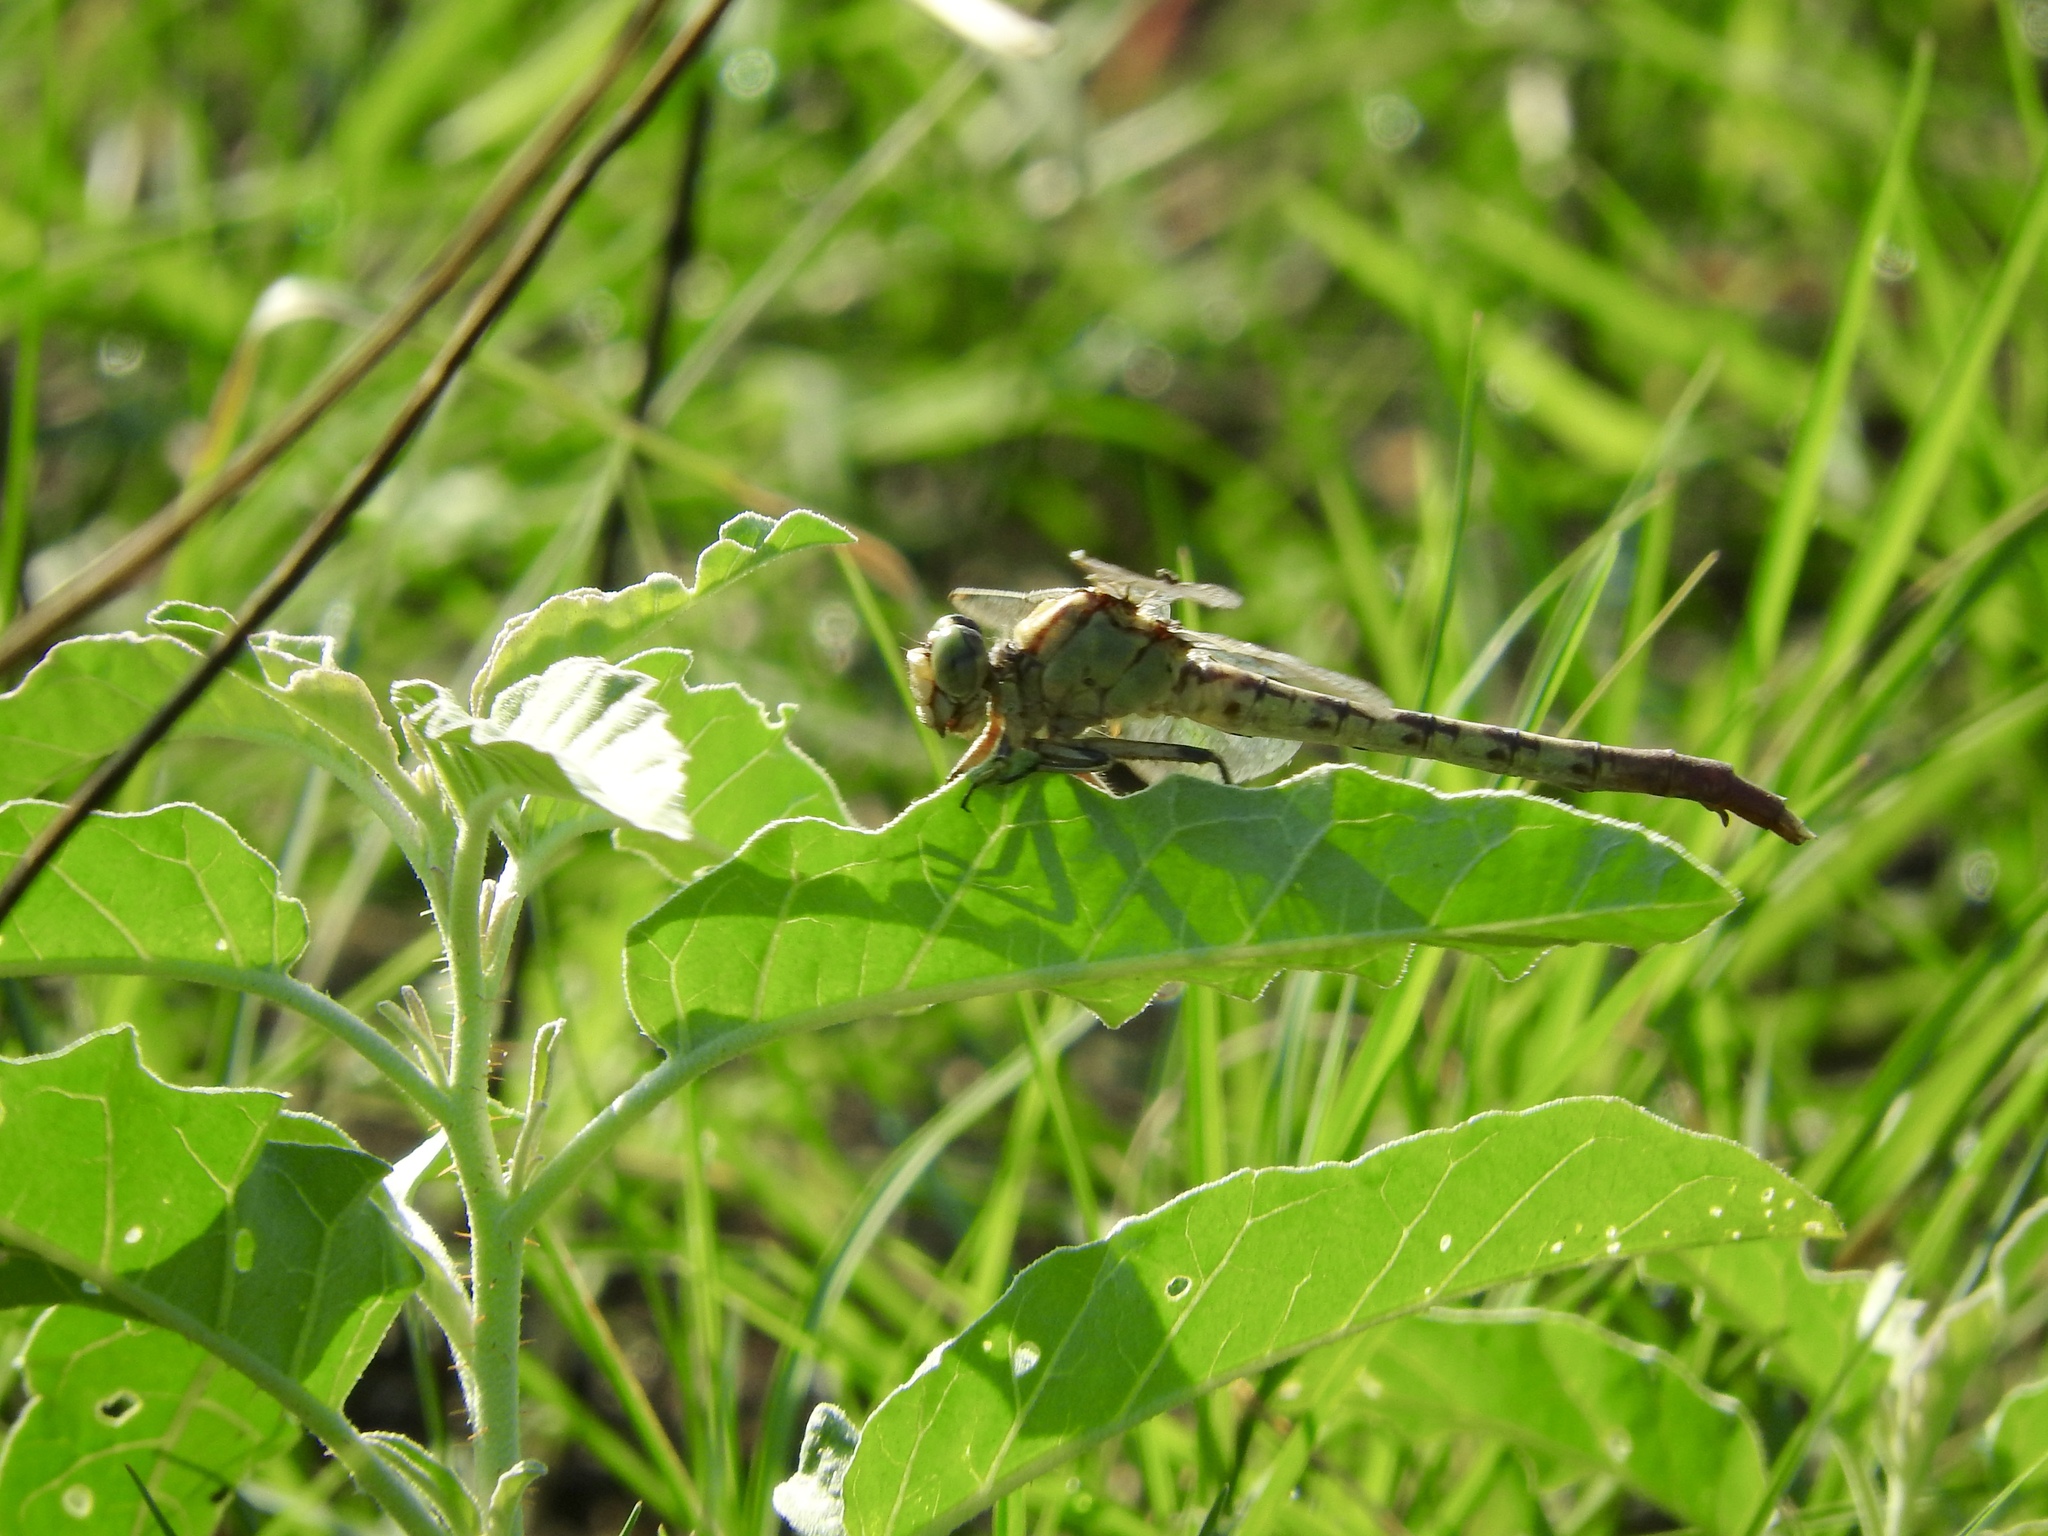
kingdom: Animalia
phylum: Arthropoda
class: Insecta
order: Odonata
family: Gomphidae
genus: Arigomphus
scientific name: Arigomphus submedianus
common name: Jade clubtail
